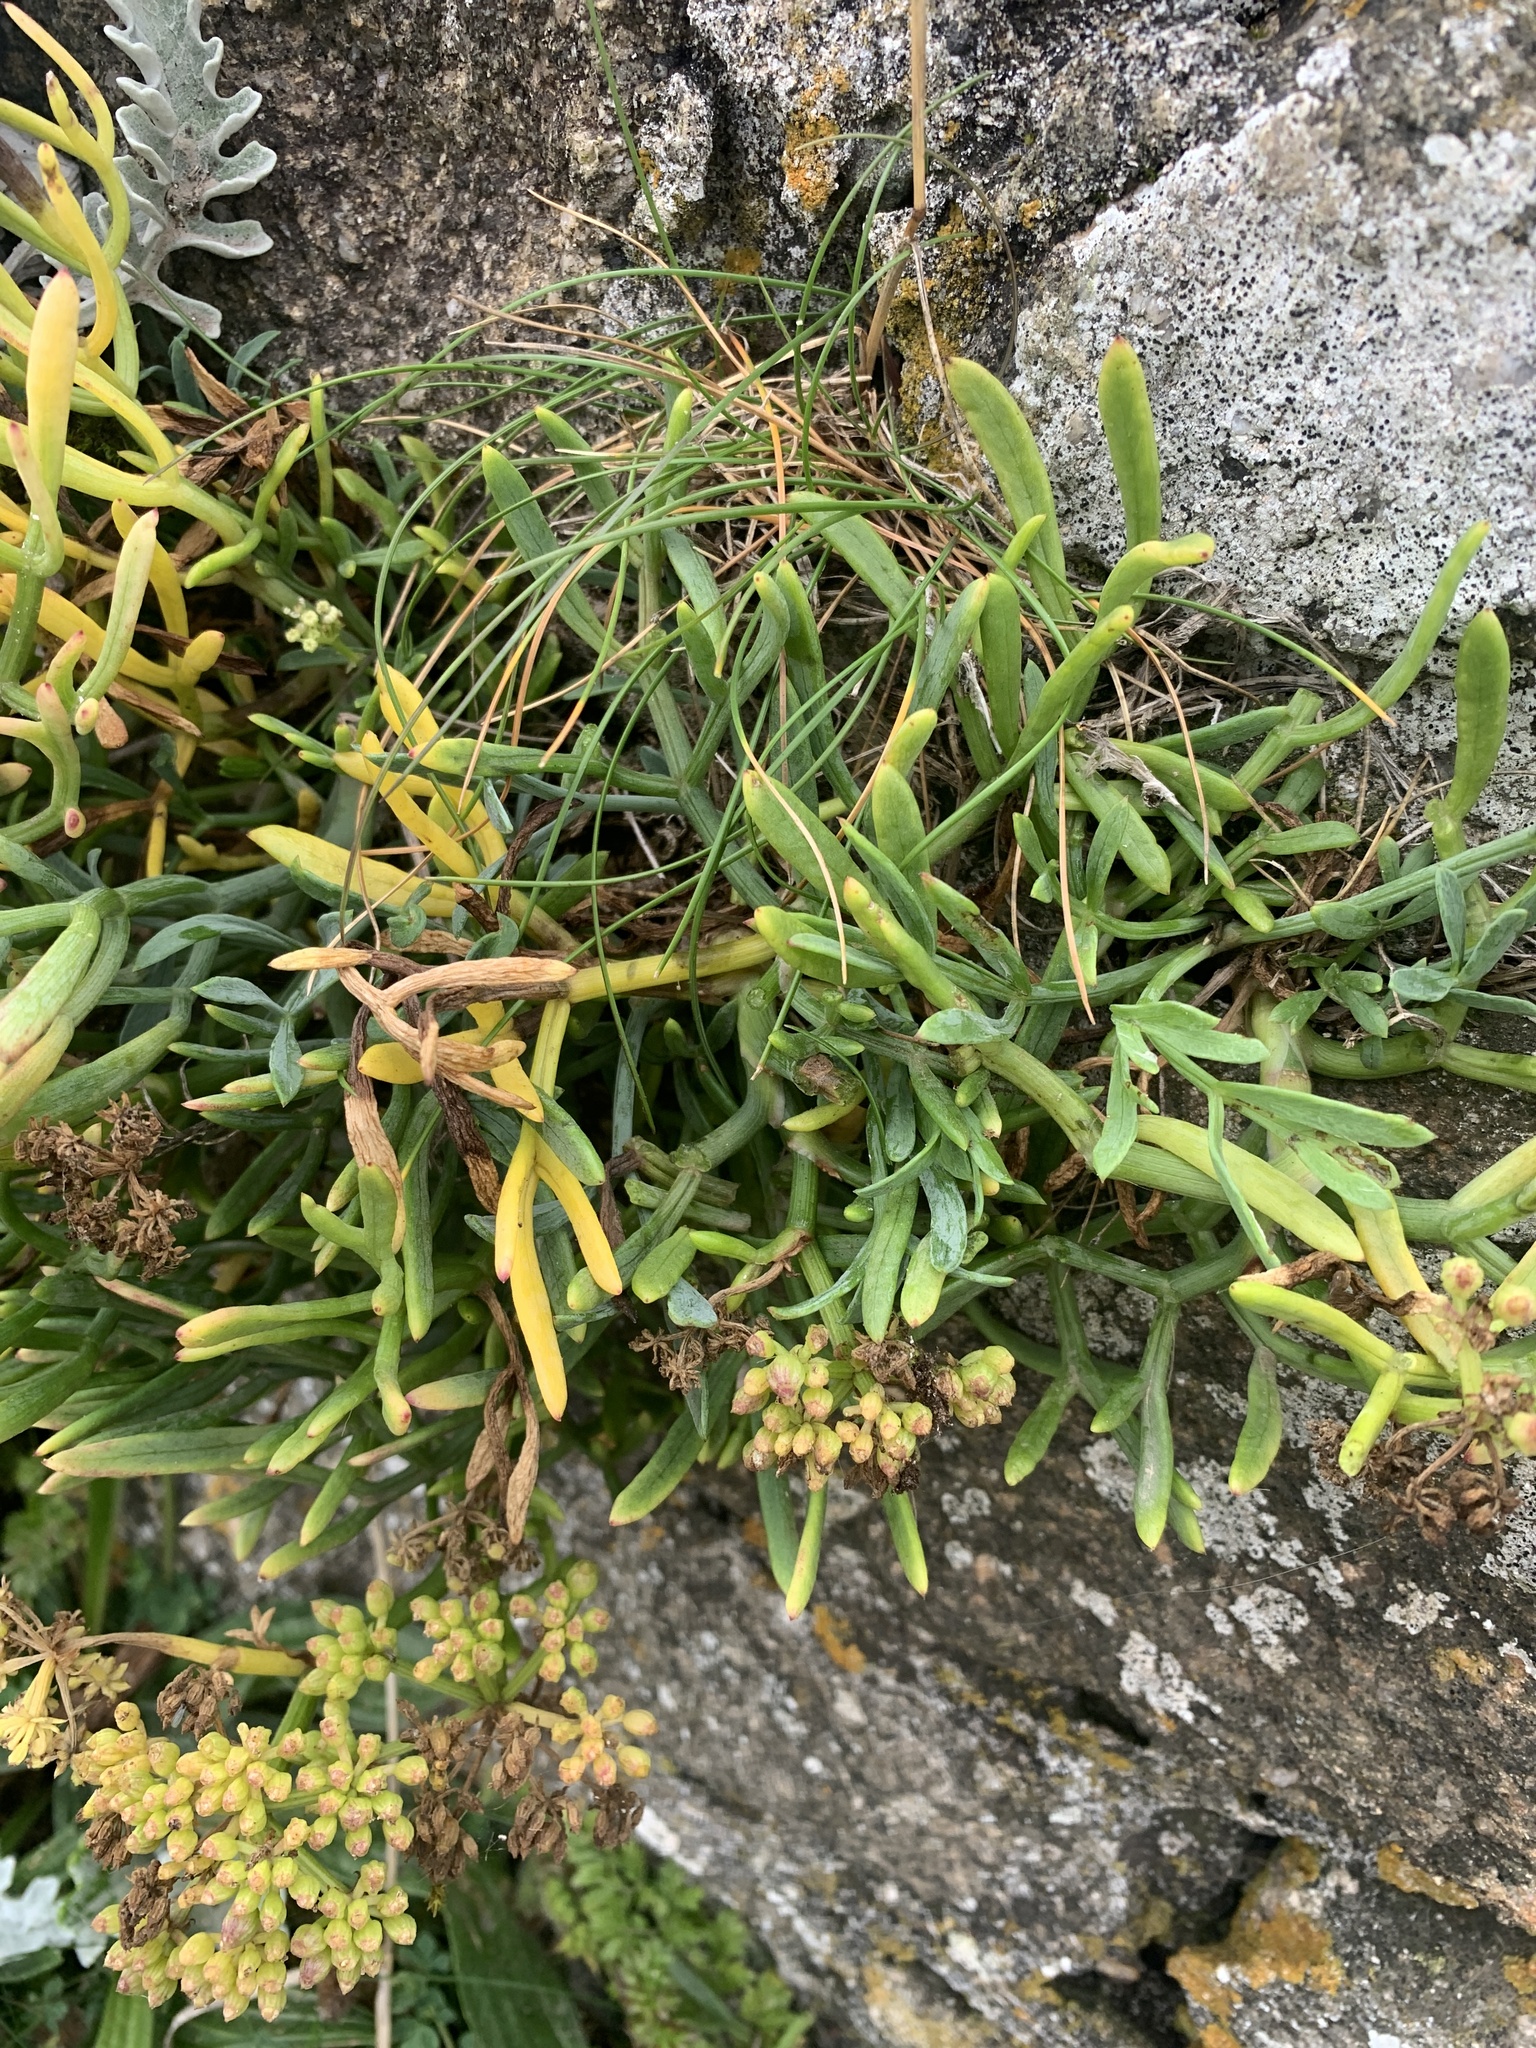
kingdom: Plantae
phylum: Tracheophyta
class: Magnoliopsida
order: Apiales
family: Apiaceae
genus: Crithmum
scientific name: Crithmum maritimum
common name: Rock samphire
